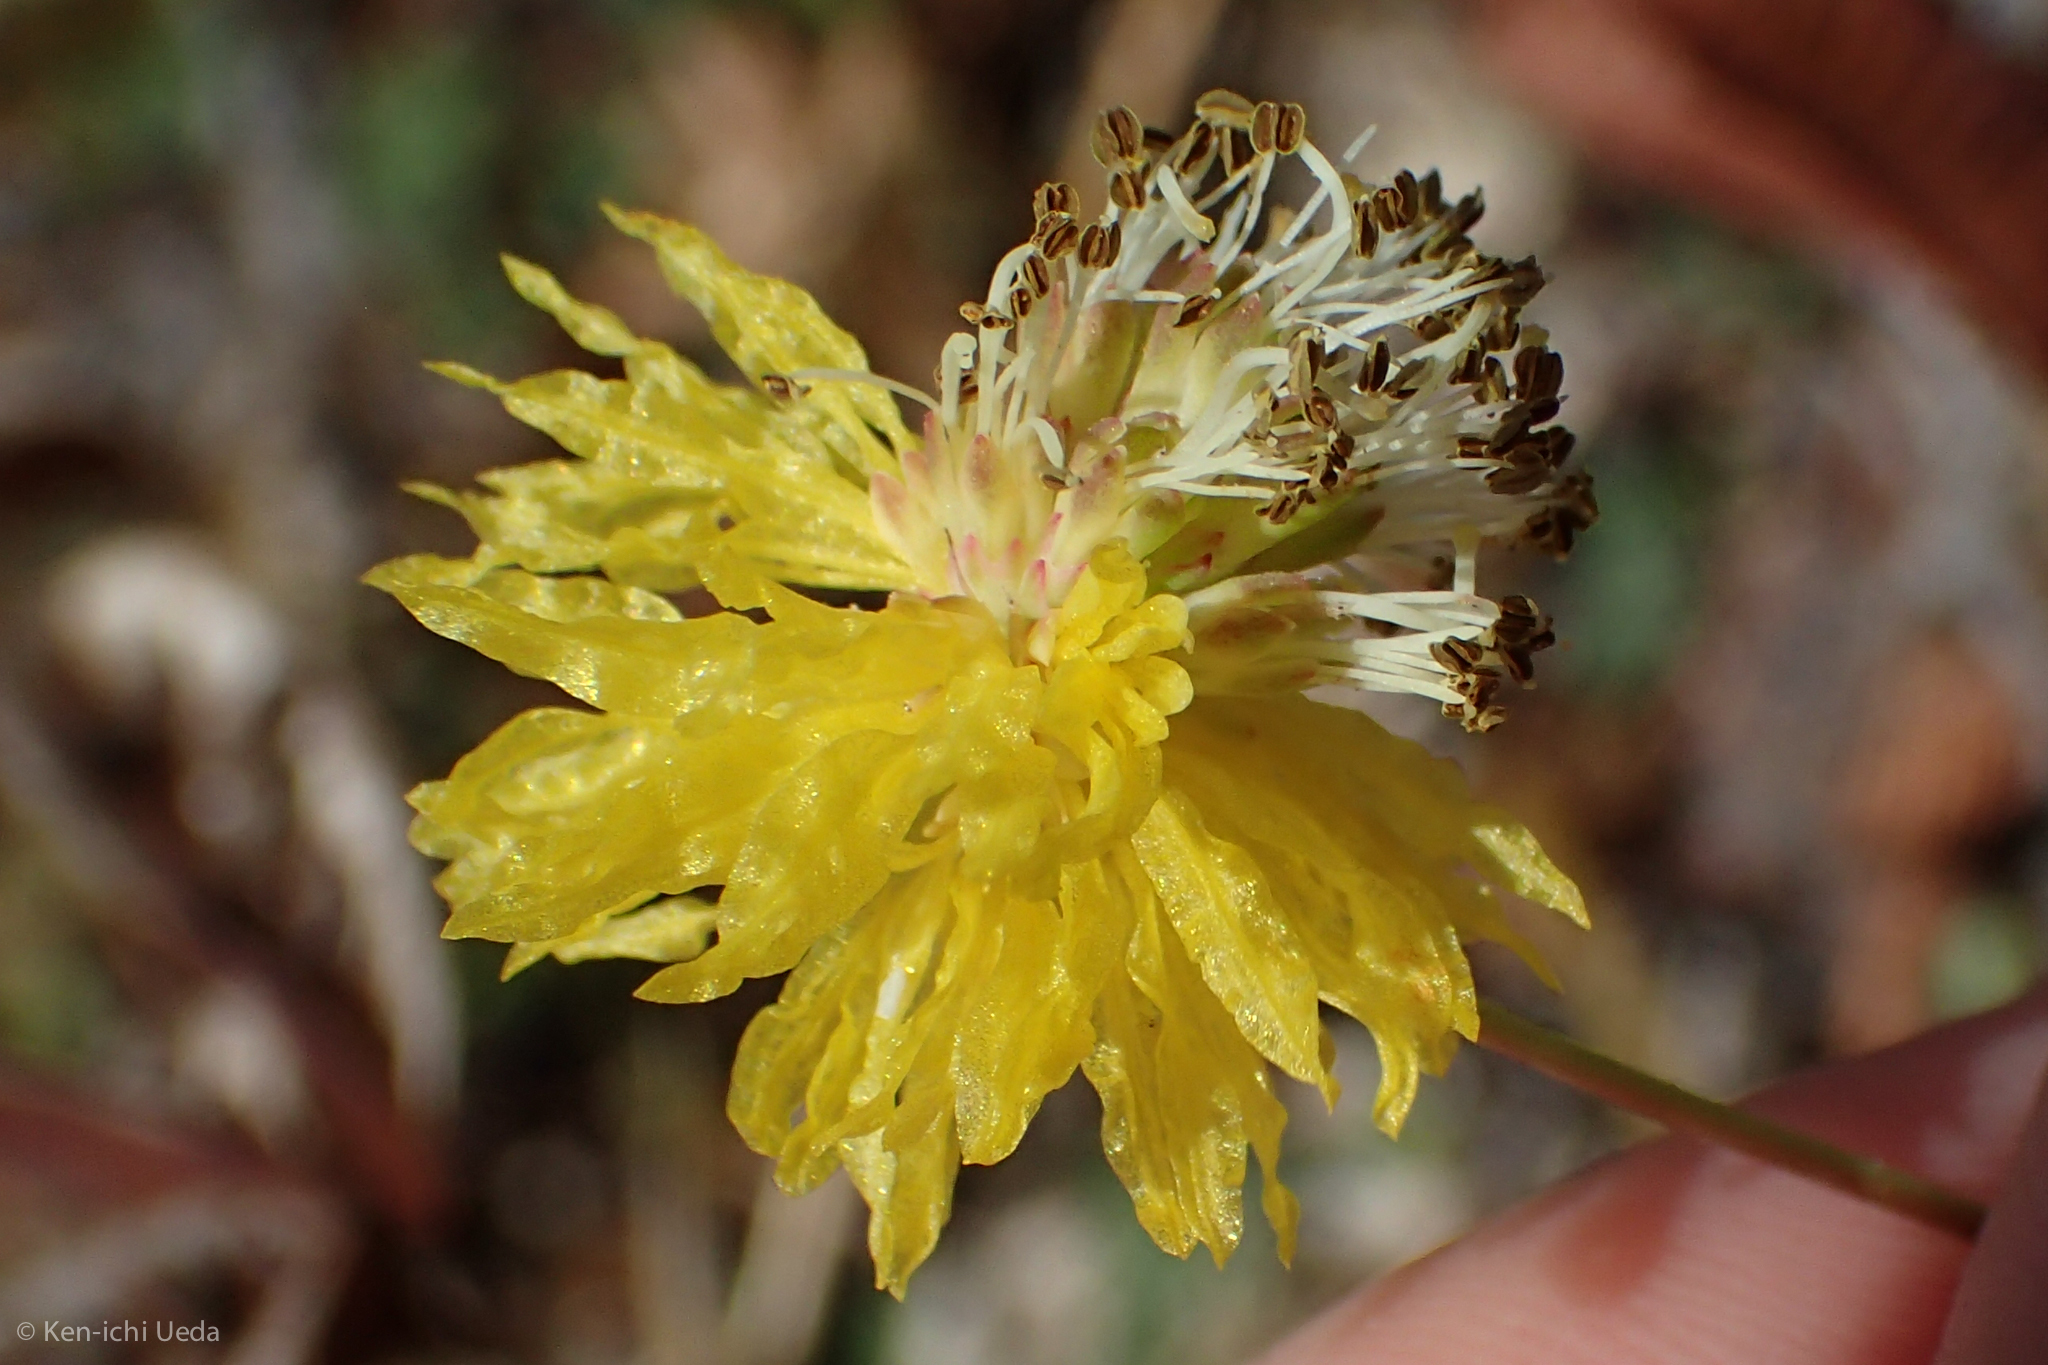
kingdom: Plantae
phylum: Tracheophyta
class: Magnoliopsida
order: Fabales
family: Fabaceae
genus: Neptunia
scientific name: Neptunia plena
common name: Dead and awake
